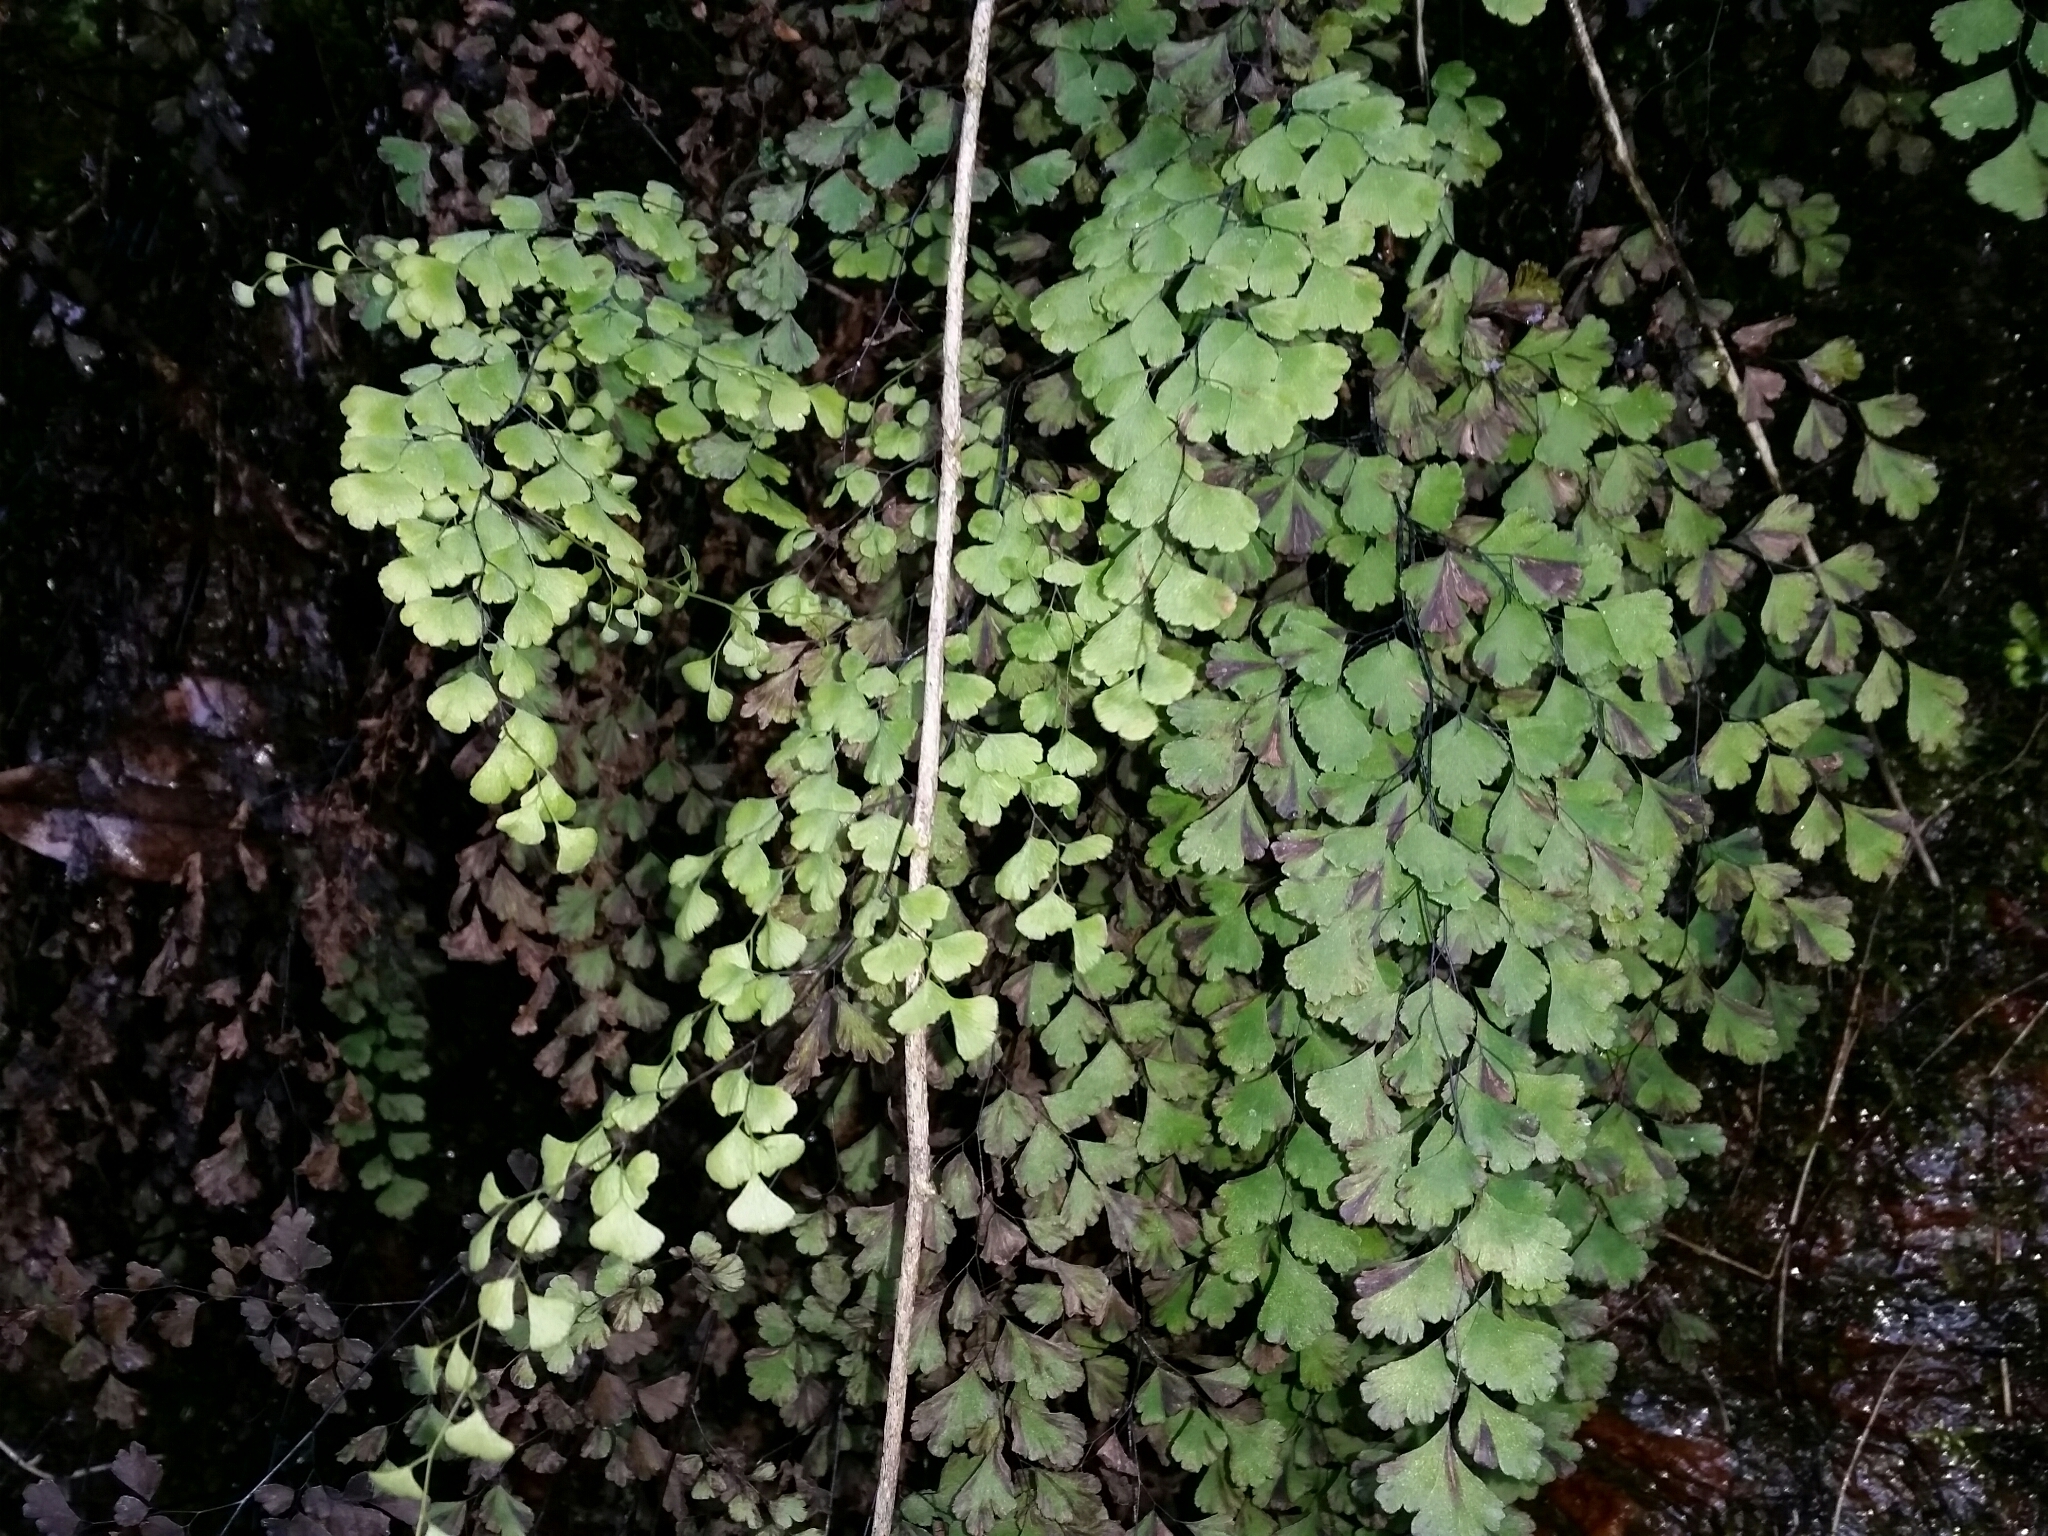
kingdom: Plantae
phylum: Tracheophyta
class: Polypodiopsida
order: Polypodiales
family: Pteridaceae
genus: Adiantum
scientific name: Adiantum capillus-veneris
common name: Maidenhair fern
